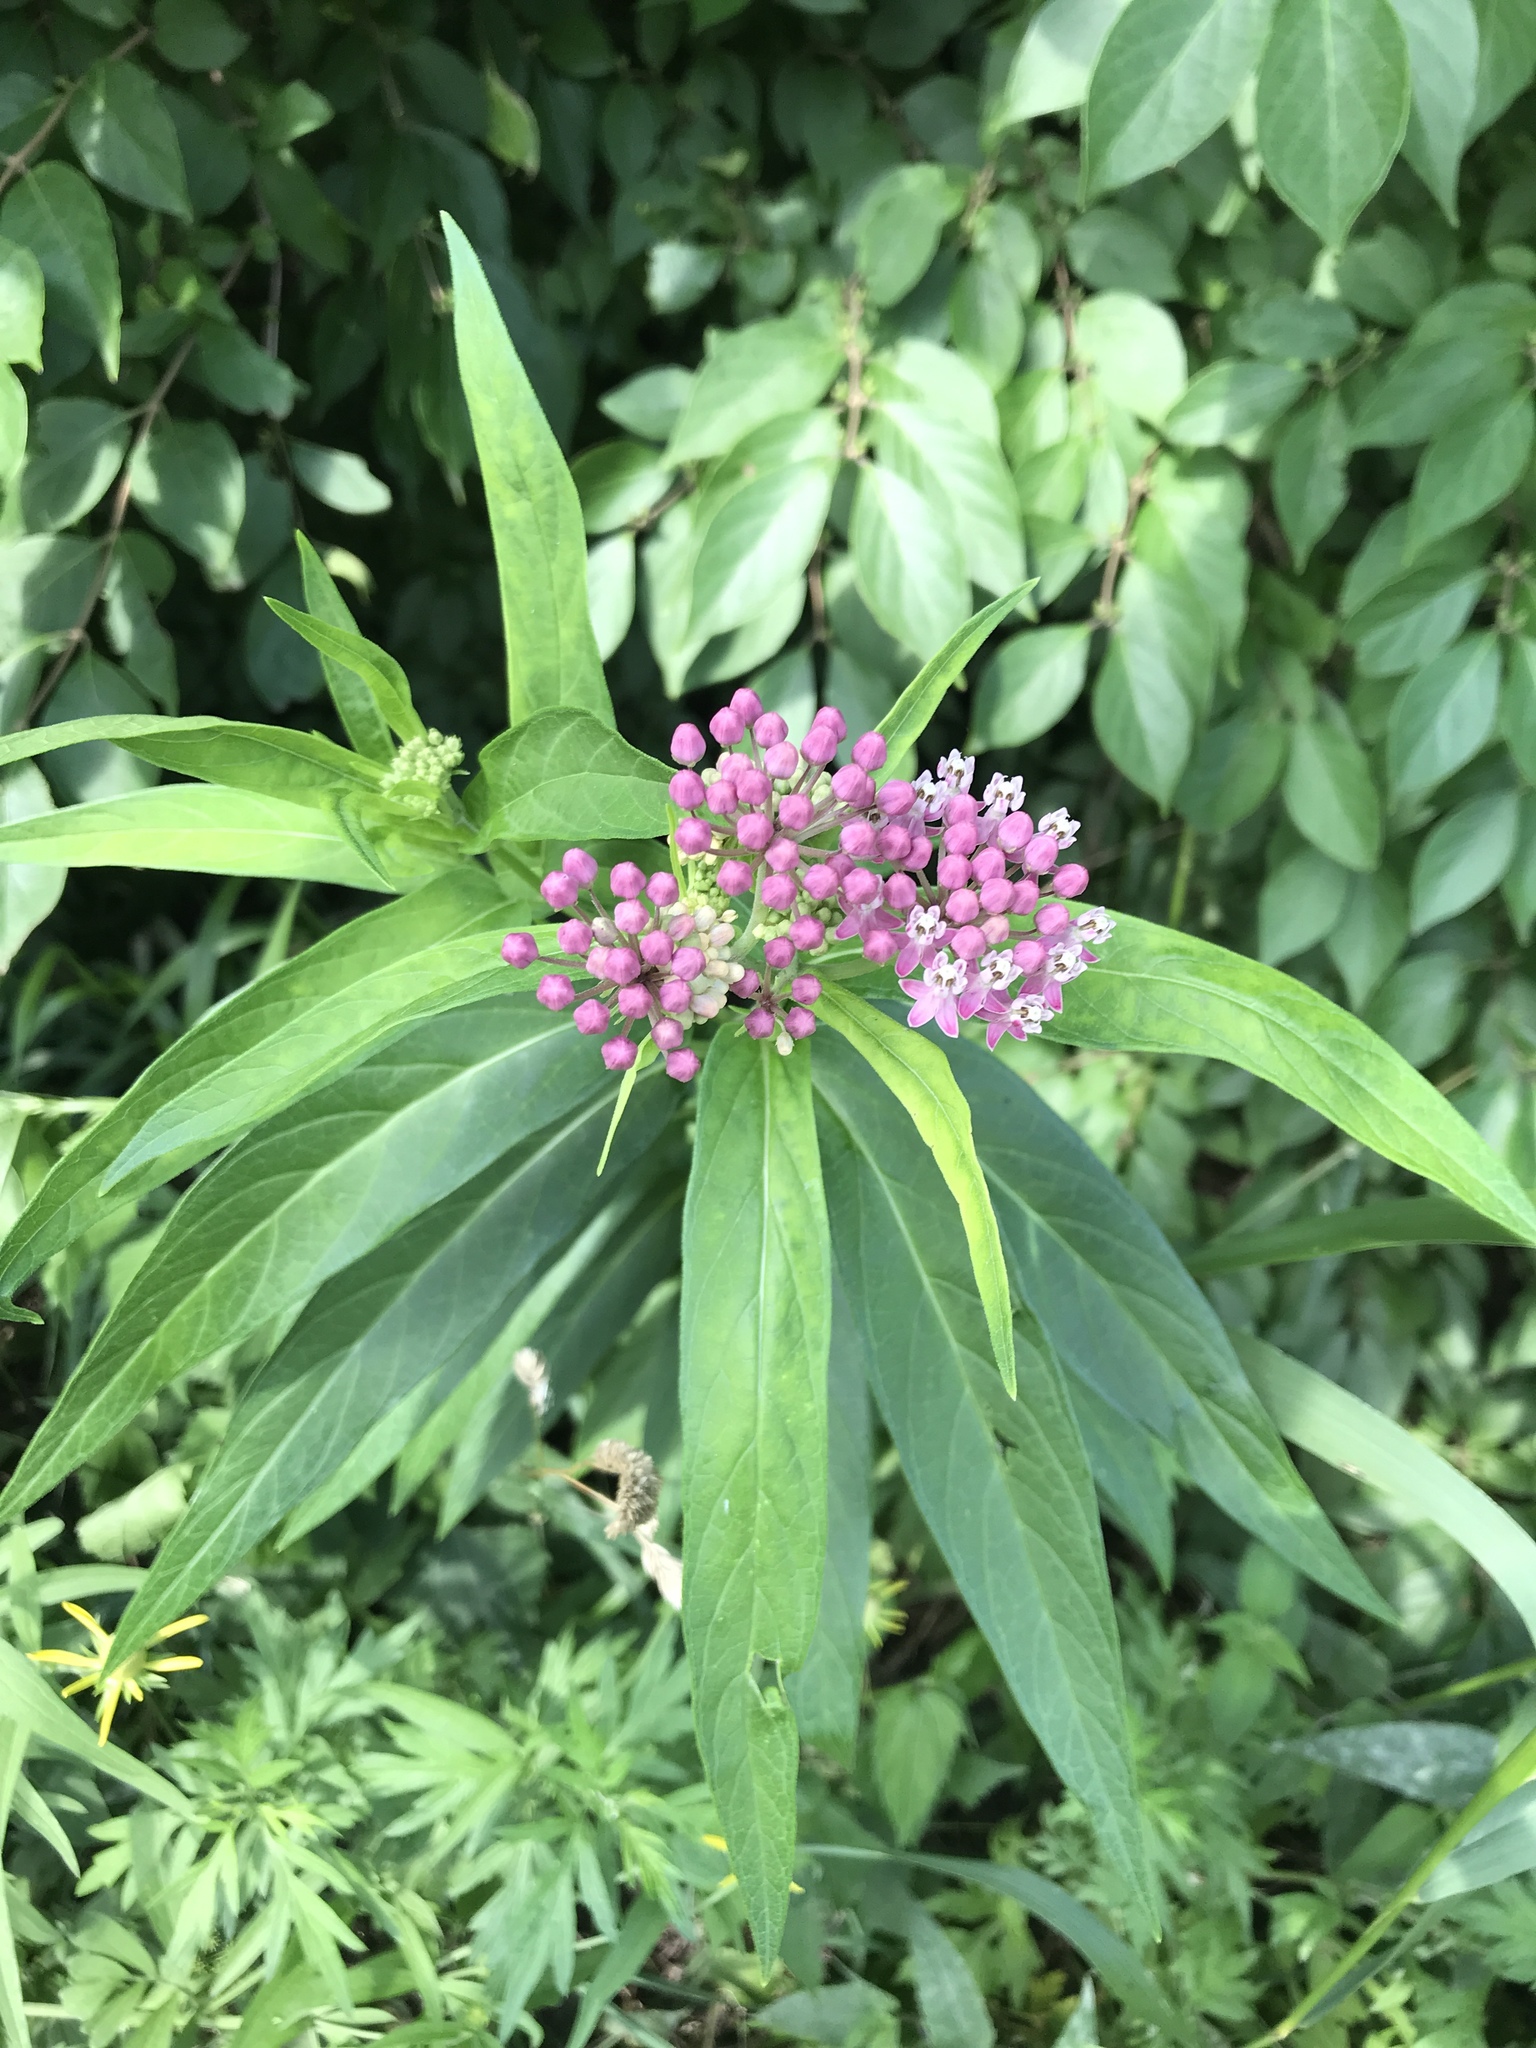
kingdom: Plantae
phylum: Tracheophyta
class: Magnoliopsida
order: Gentianales
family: Apocynaceae
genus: Asclepias
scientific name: Asclepias incarnata
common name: Swamp milkweed
